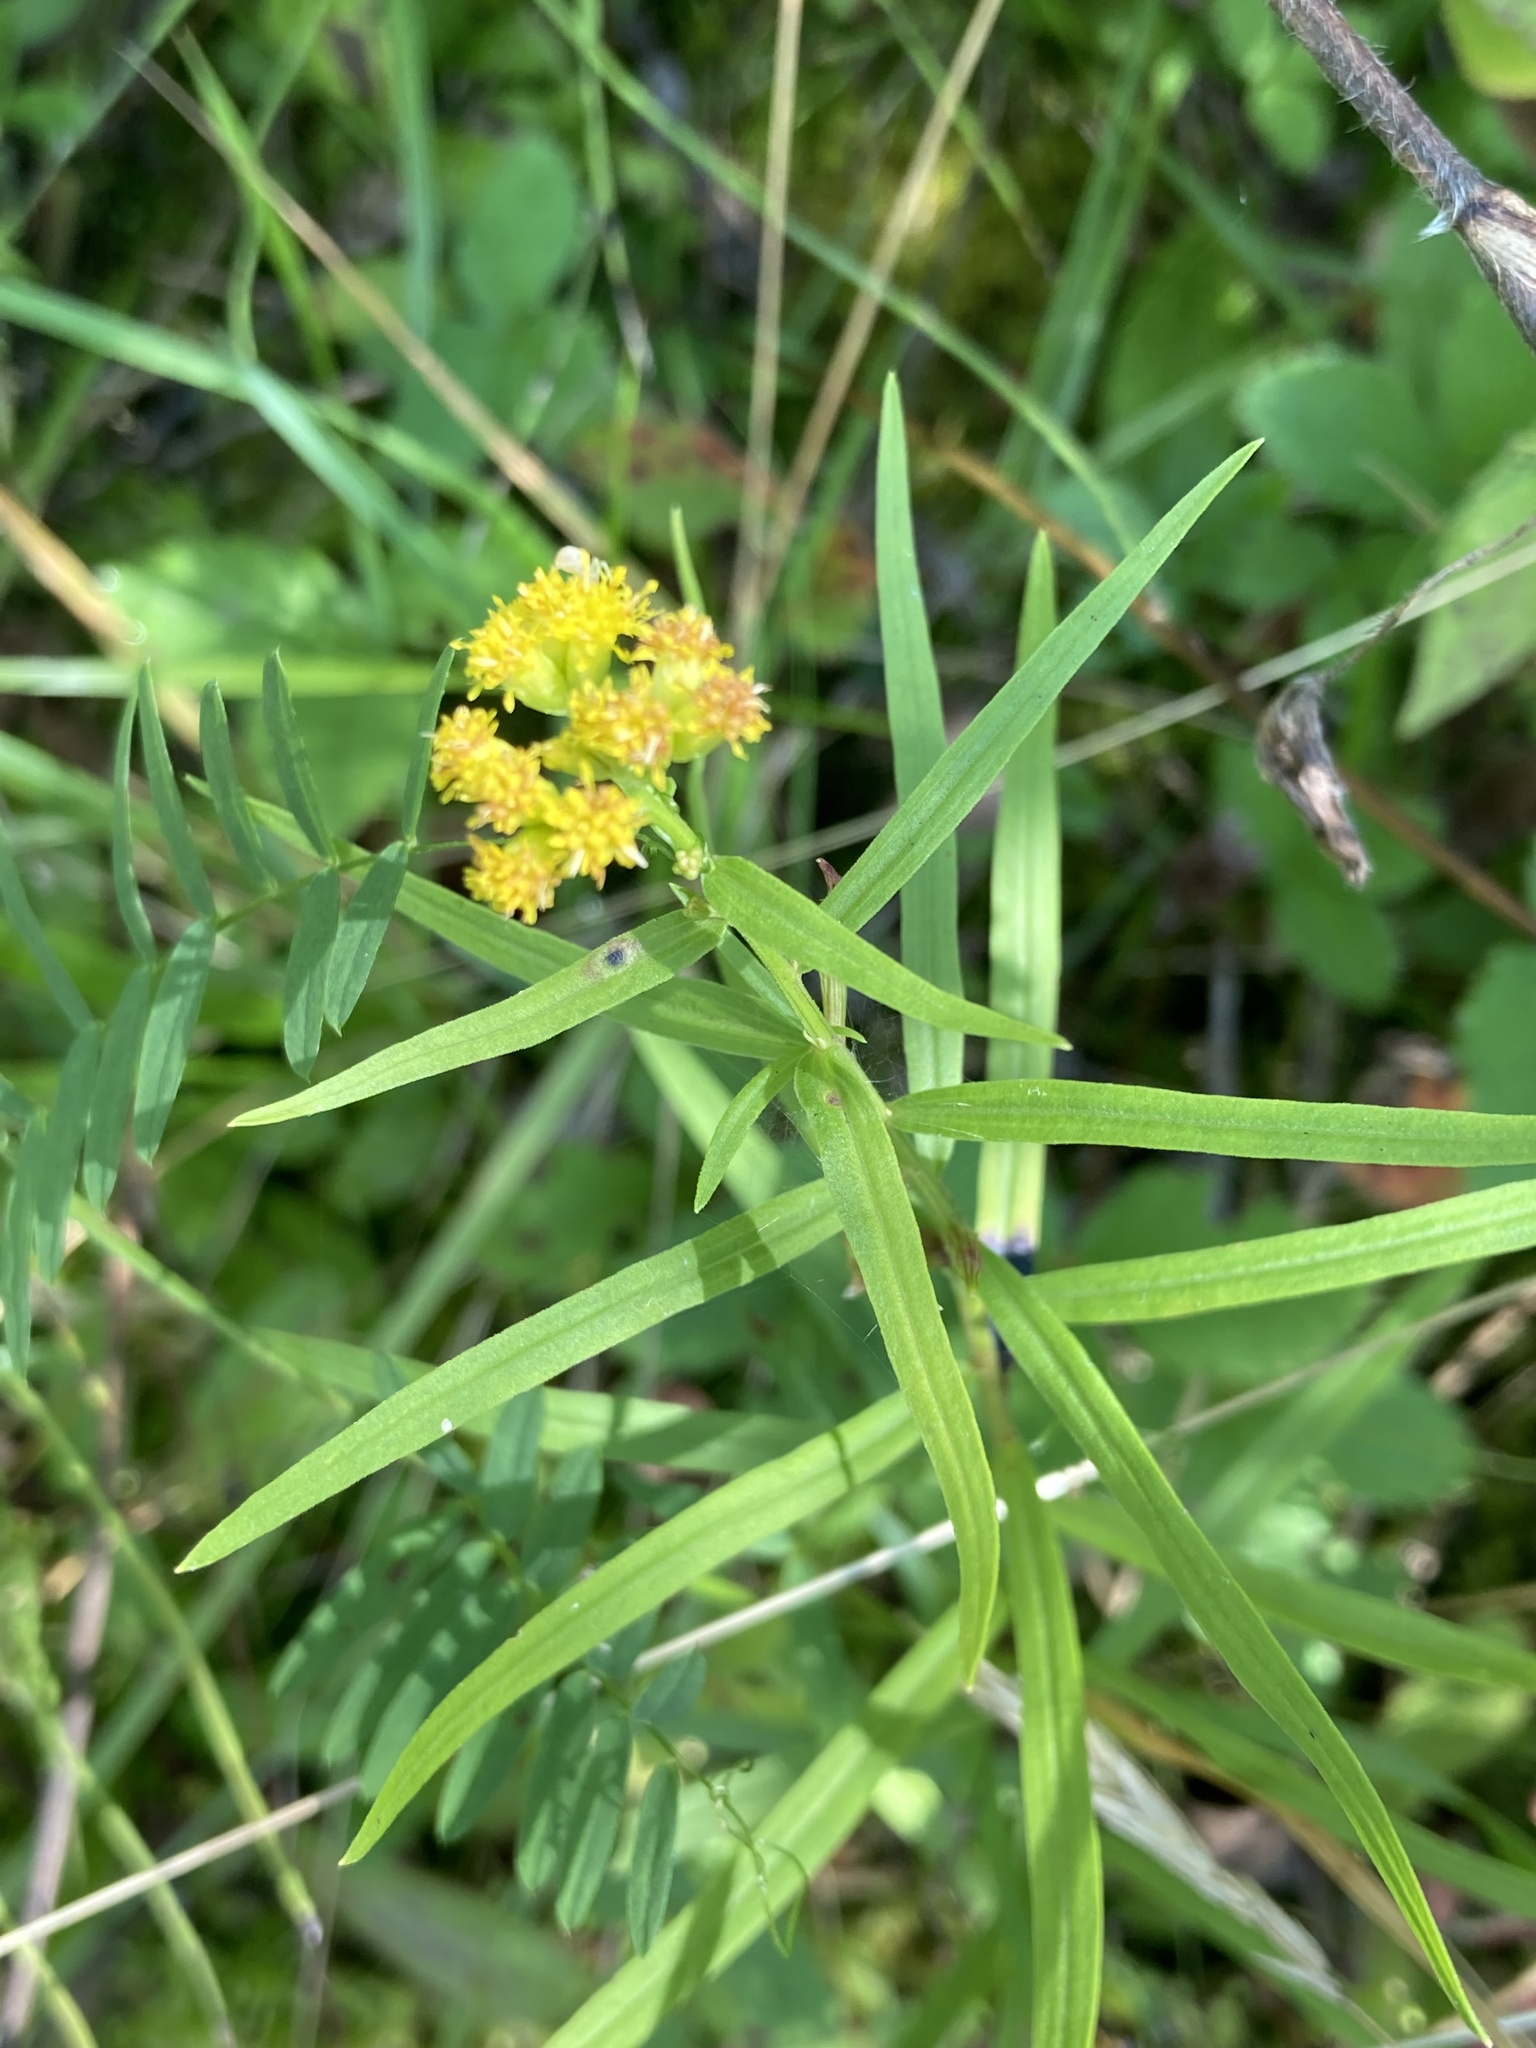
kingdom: Plantae
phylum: Tracheophyta
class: Magnoliopsida
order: Asterales
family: Asteraceae
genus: Euthamia
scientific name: Euthamia graminifolia
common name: Common goldentop
